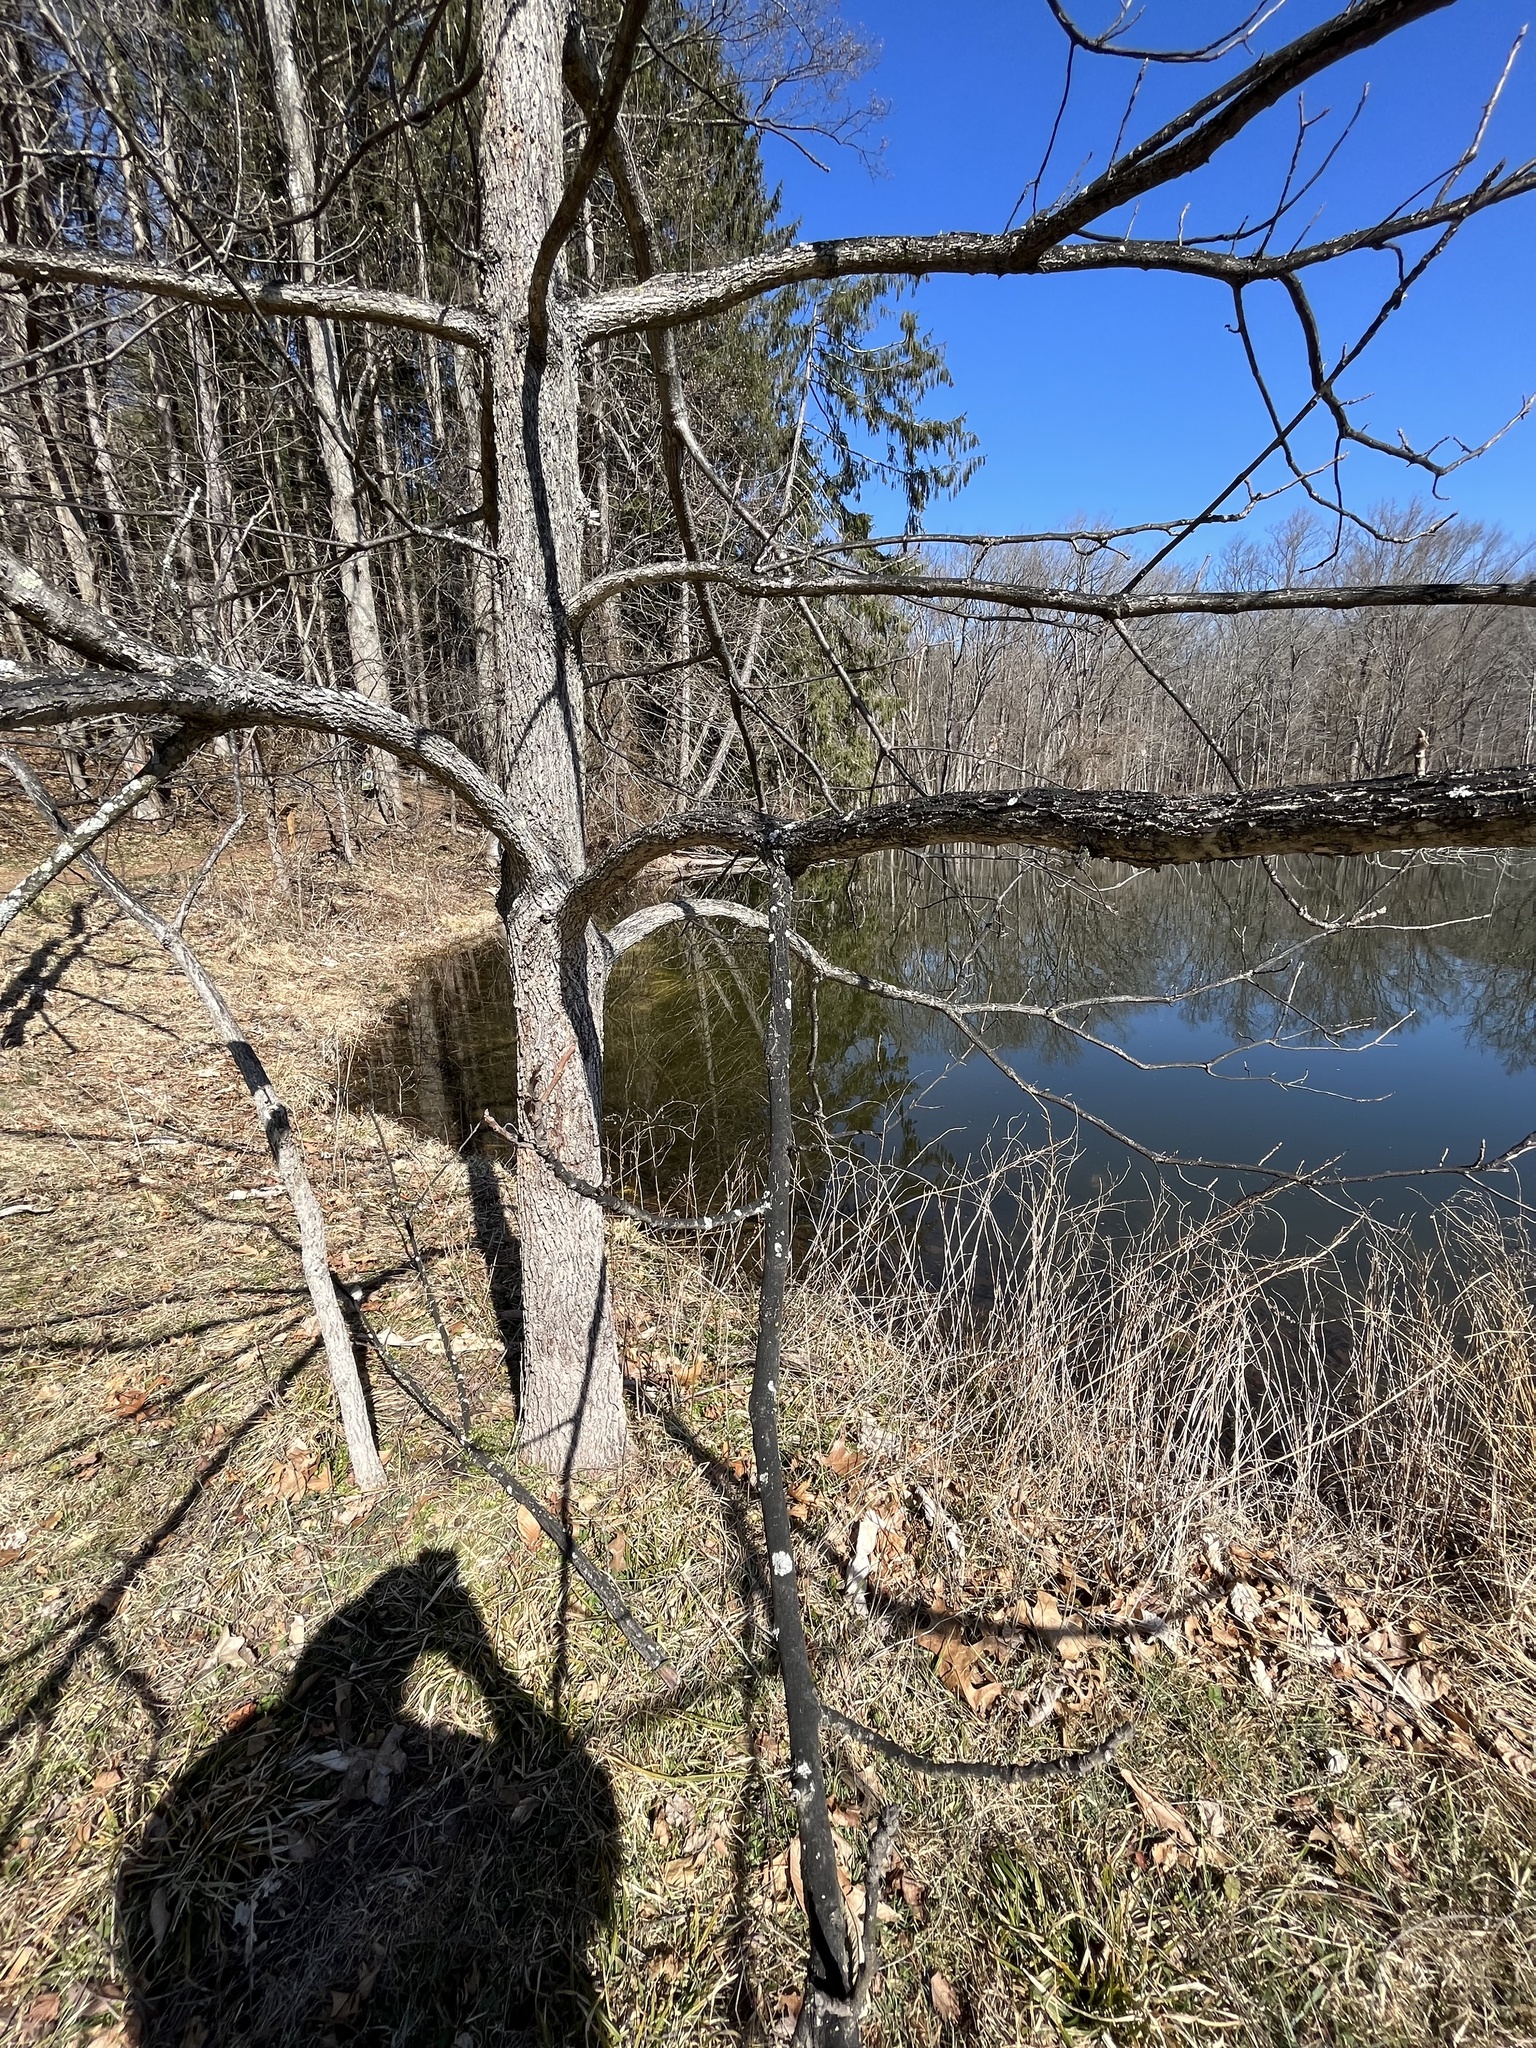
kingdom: Fungi
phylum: Ascomycota
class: Sordariomycetes
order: Xylariales
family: Diatrypaceae
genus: Diatrype
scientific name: Diatrype stigma
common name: Common tarcrust
